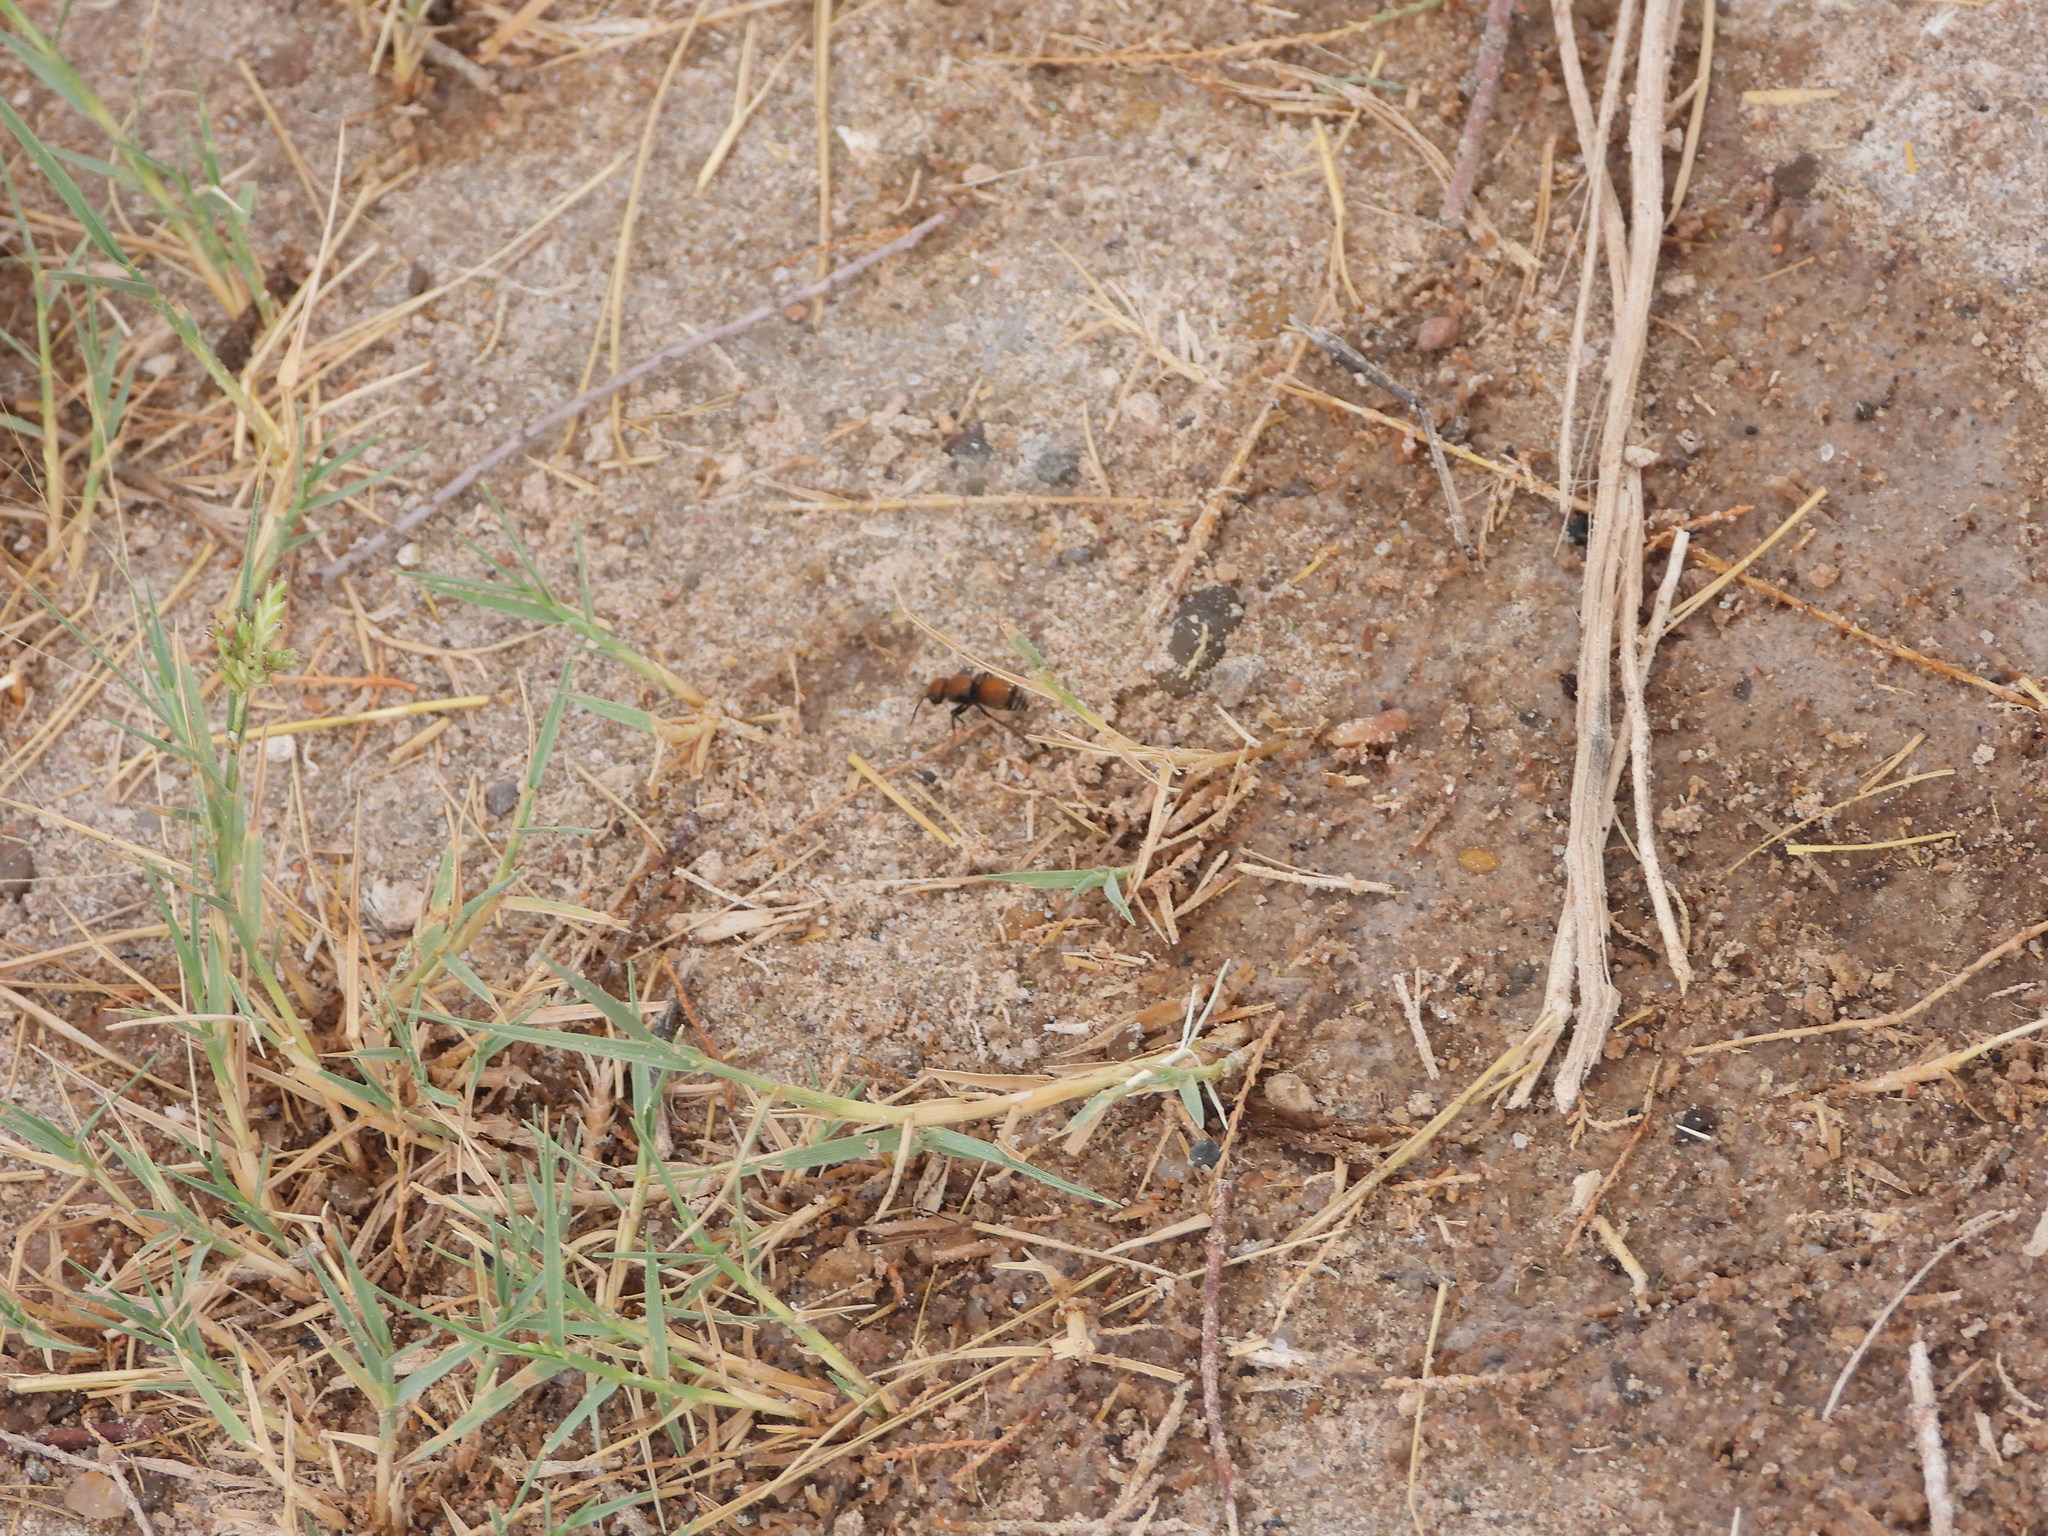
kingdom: Animalia
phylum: Arthropoda
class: Insecta
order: Hymenoptera
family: Mutillidae
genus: Pseudomethoca
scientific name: Pseudomethoca
